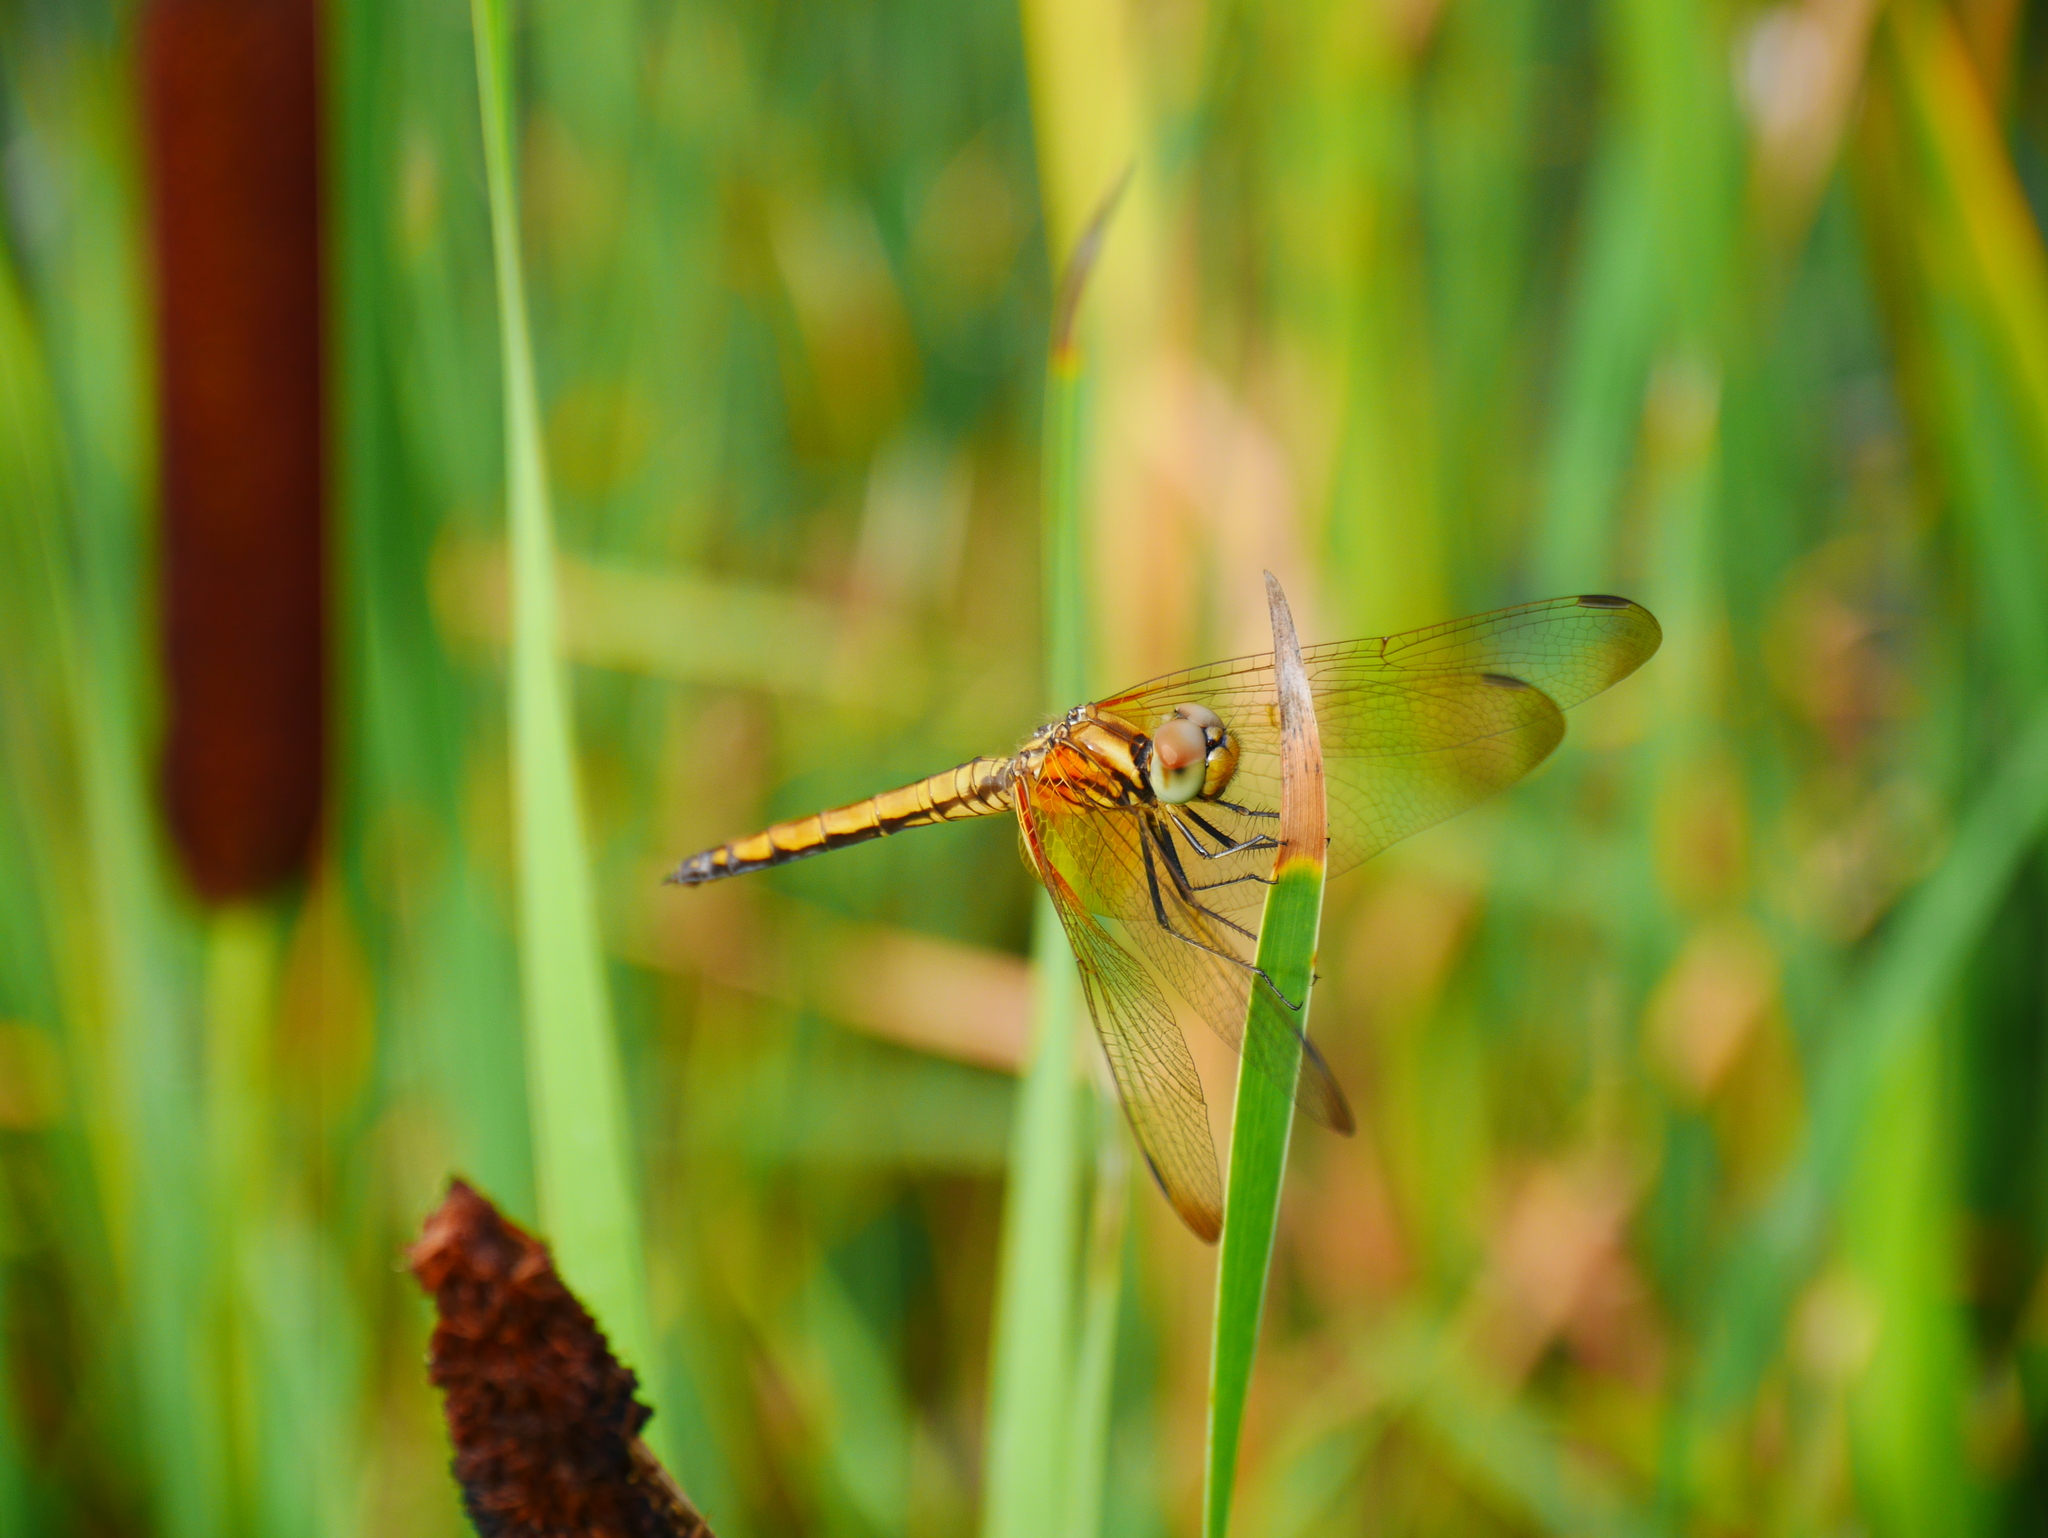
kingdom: Animalia
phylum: Arthropoda
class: Insecta
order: Odonata
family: Libellulidae
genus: Trithemis
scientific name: Trithemis aurora
